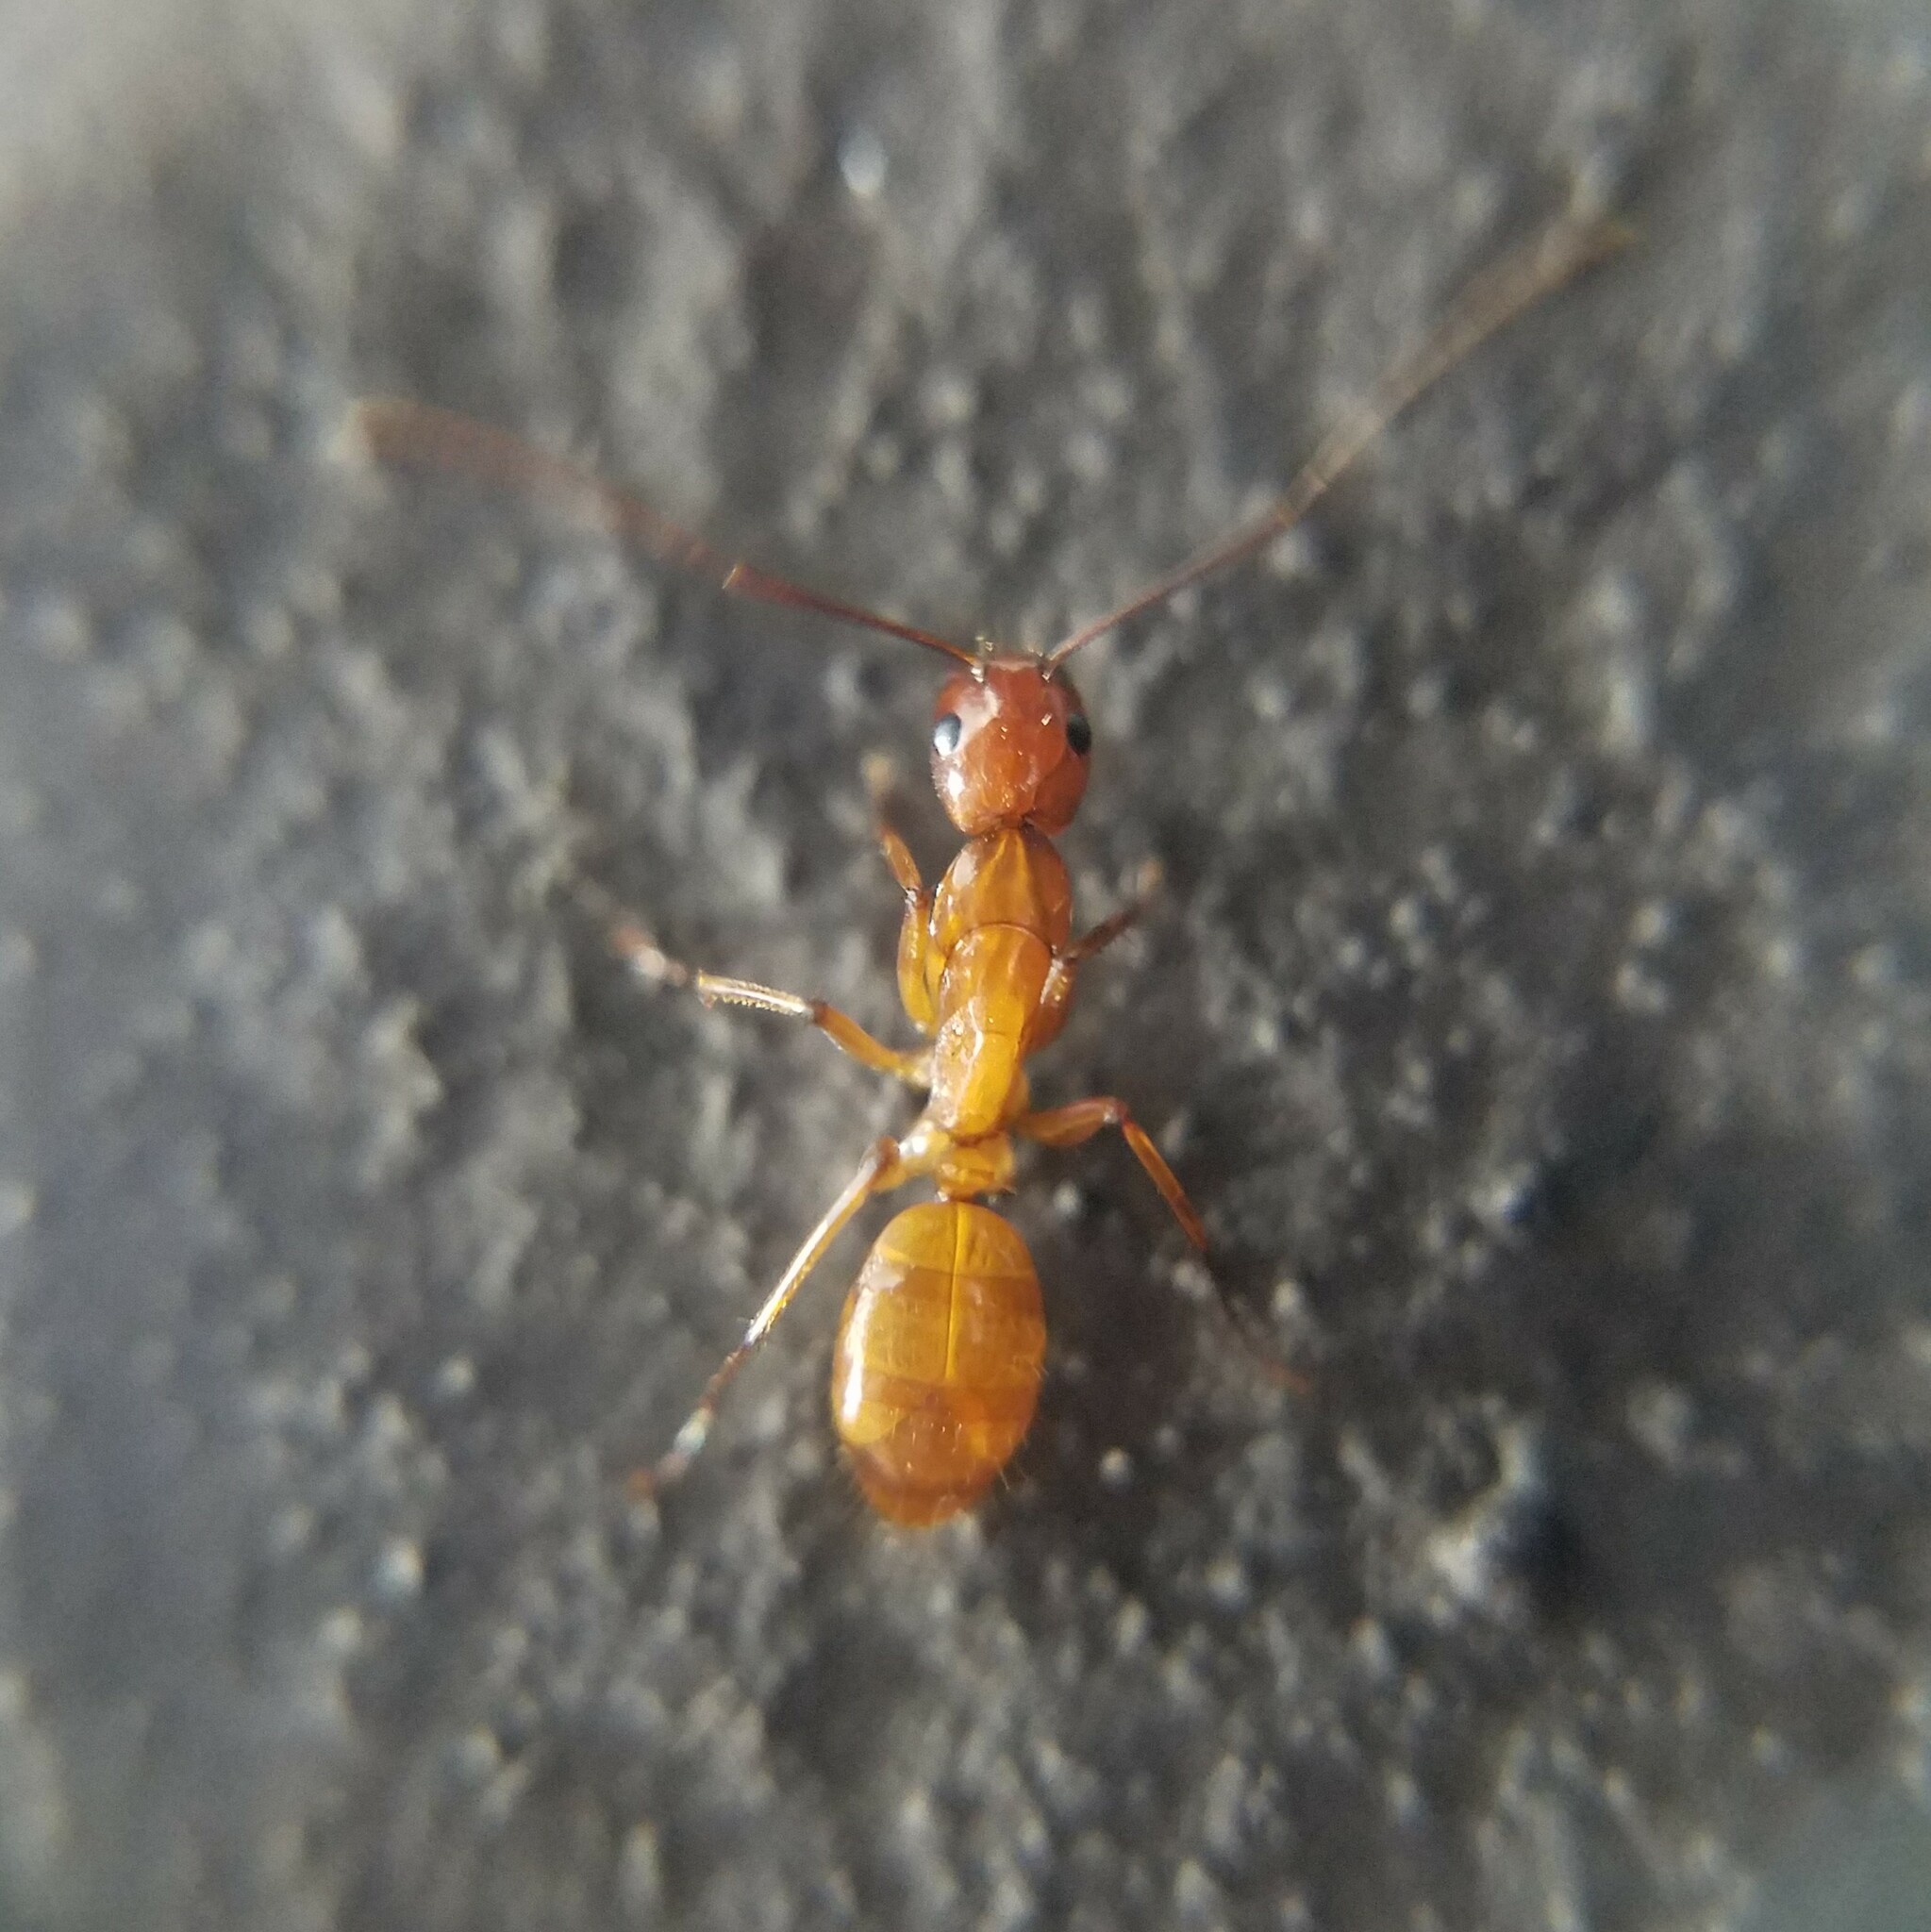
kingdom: Animalia
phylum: Arthropoda
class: Insecta
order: Hymenoptera
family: Formicidae
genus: Camponotus
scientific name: Camponotus castaneus
